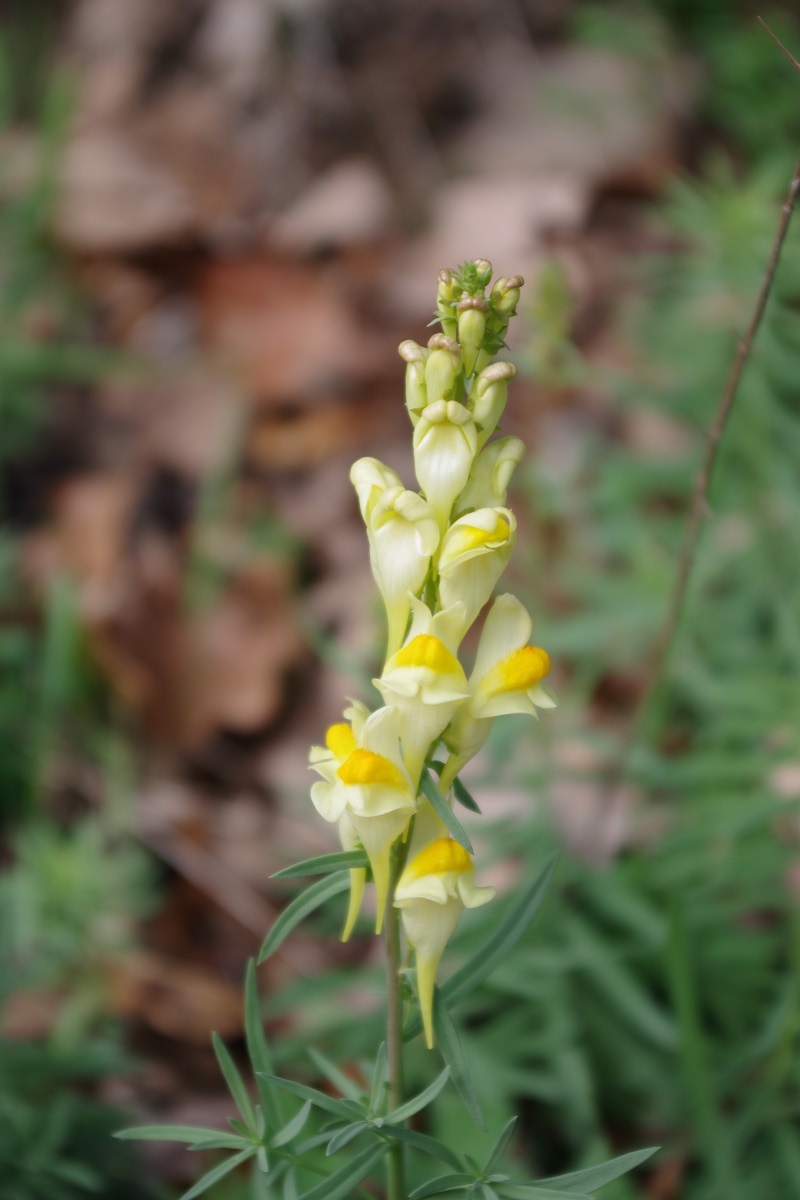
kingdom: Plantae
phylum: Tracheophyta
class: Magnoliopsida
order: Lamiales
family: Plantaginaceae
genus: Linaria
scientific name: Linaria vulgaris
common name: Butter and eggs
